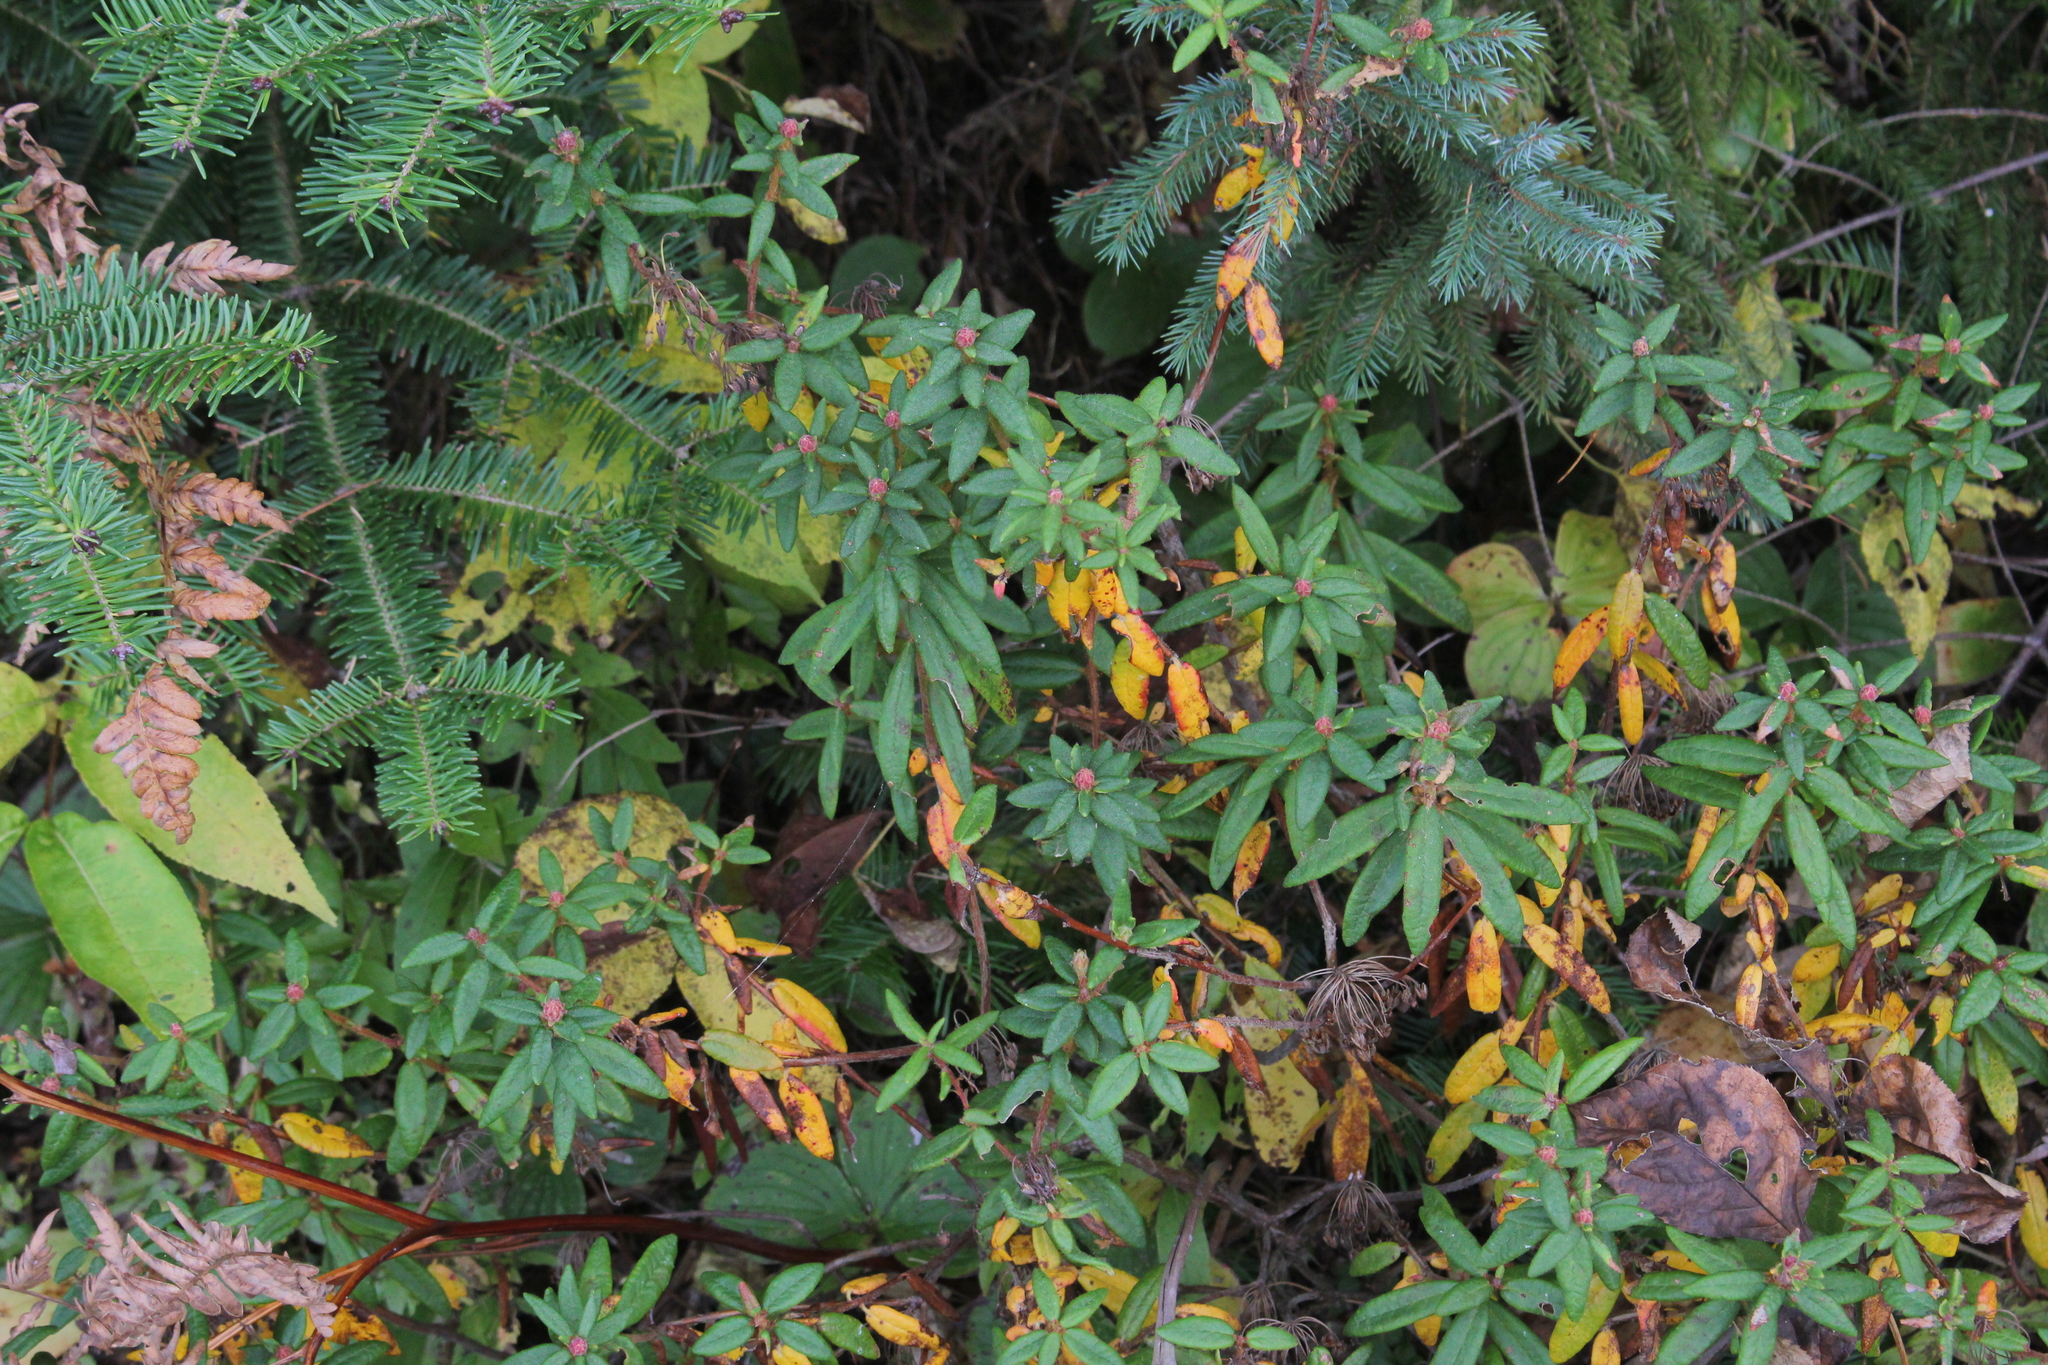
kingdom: Plantae
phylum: Tracheophyta
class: Magnoliopsida
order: Ericales
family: Ericaceae
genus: Rhododendron
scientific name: Rhododendron groenlandicum
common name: Bog labrador tea
